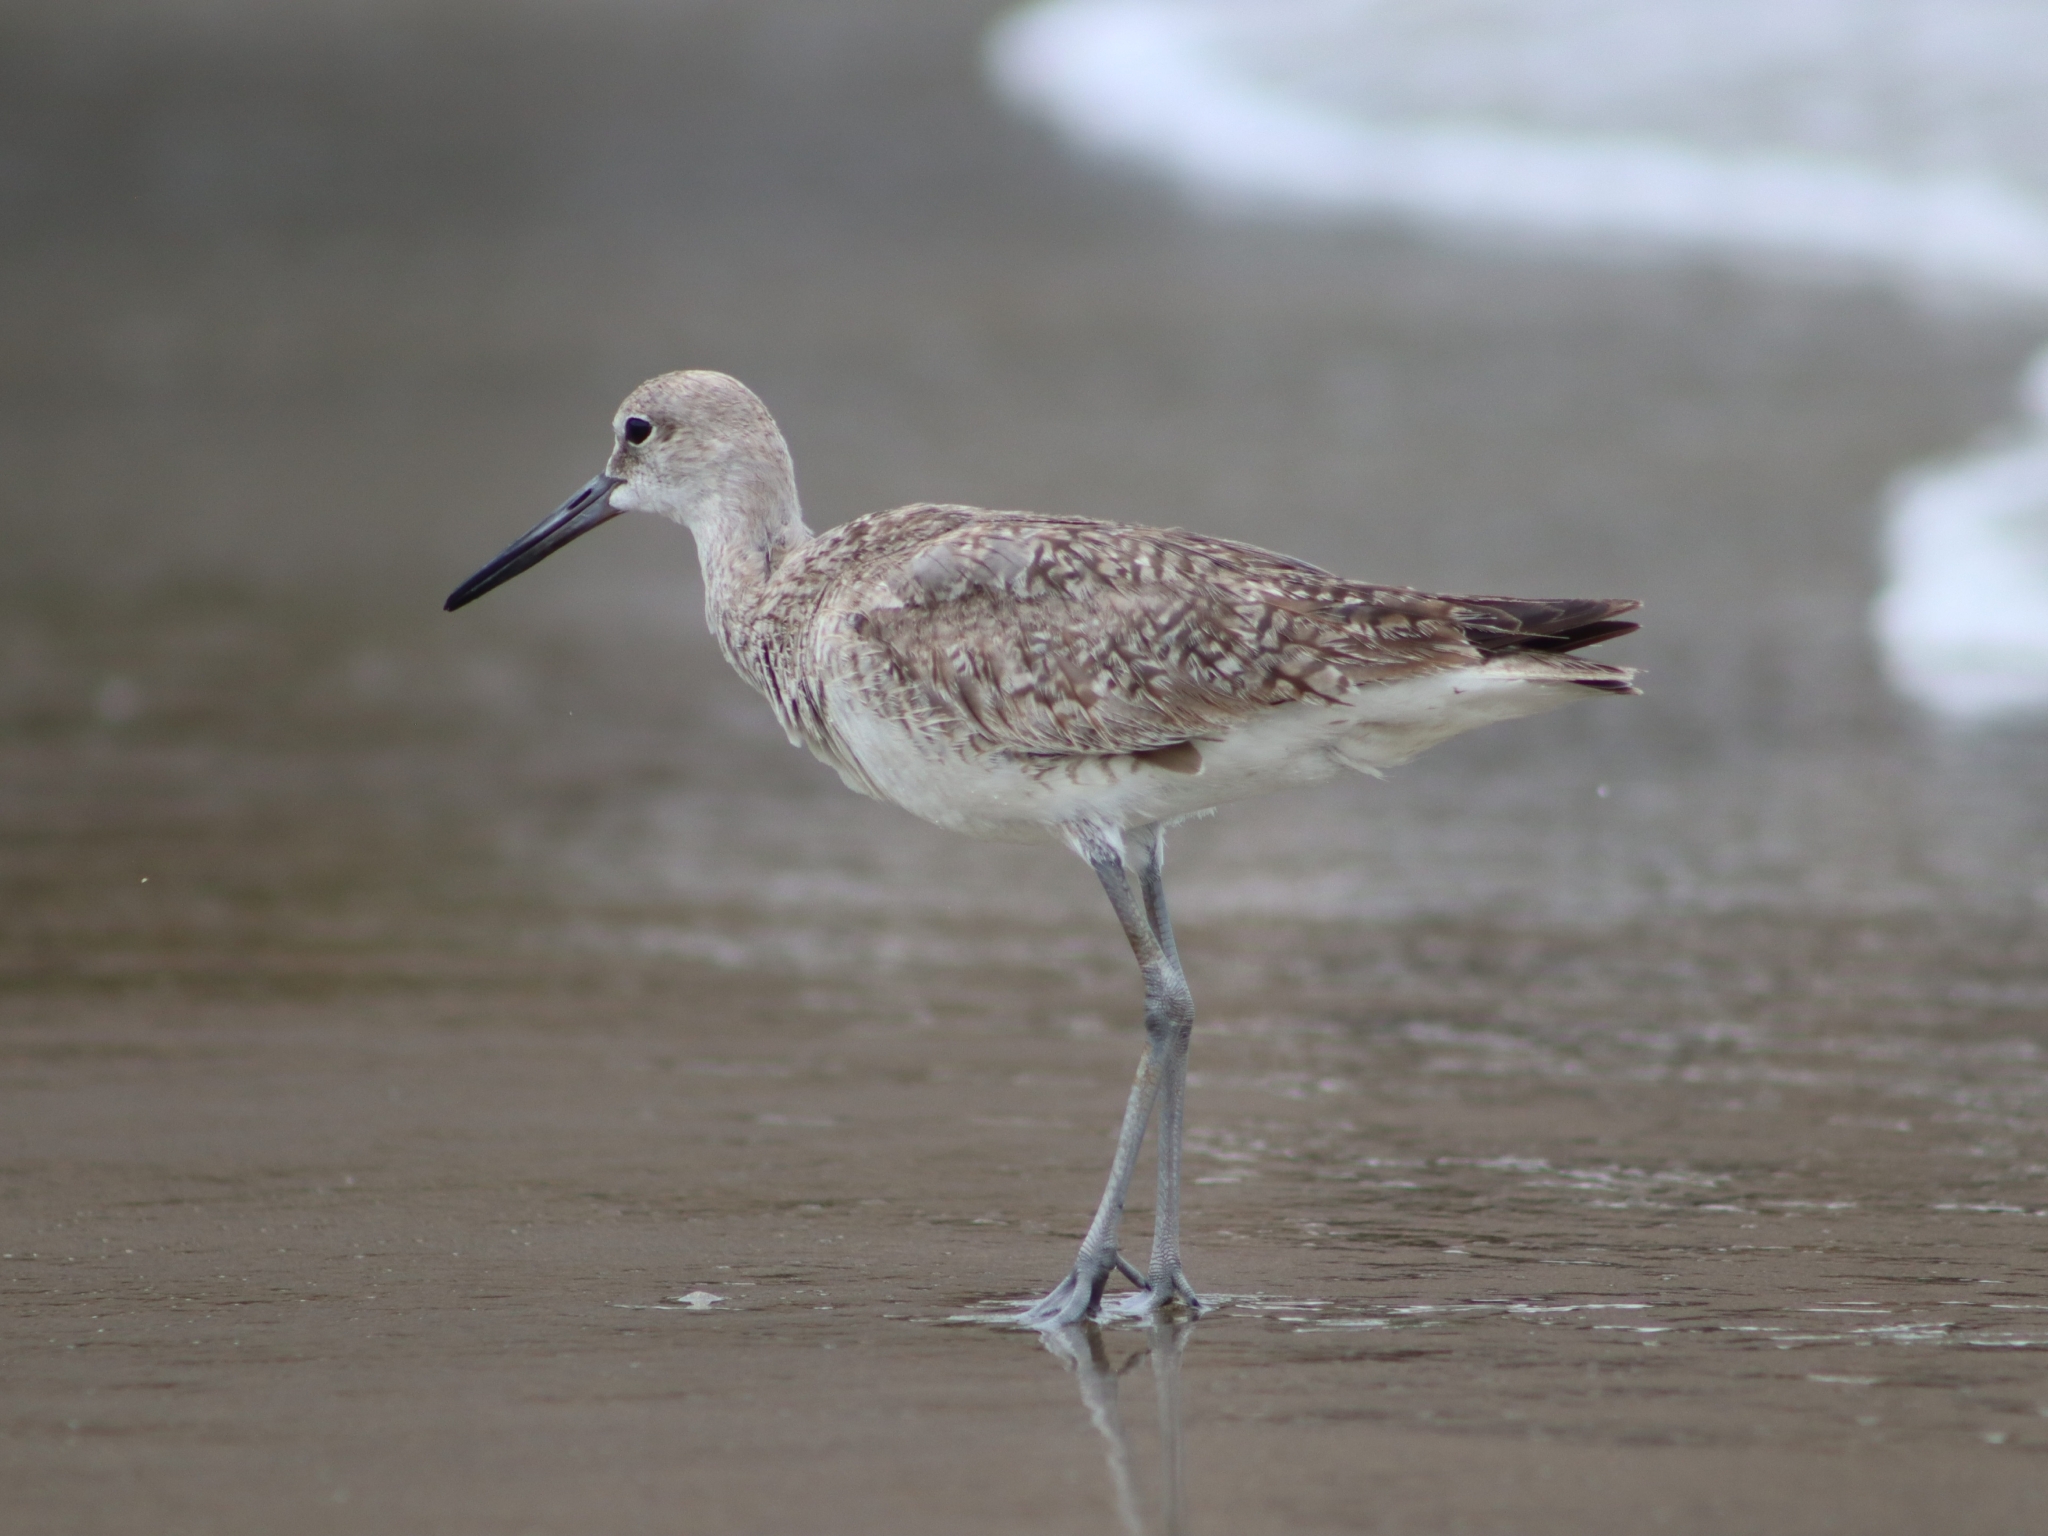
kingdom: Animalia
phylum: Chordata
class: Aves
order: Charadriiformes
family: Scolopacidae
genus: Tringa
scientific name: Tringa semipalmata
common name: Willet
